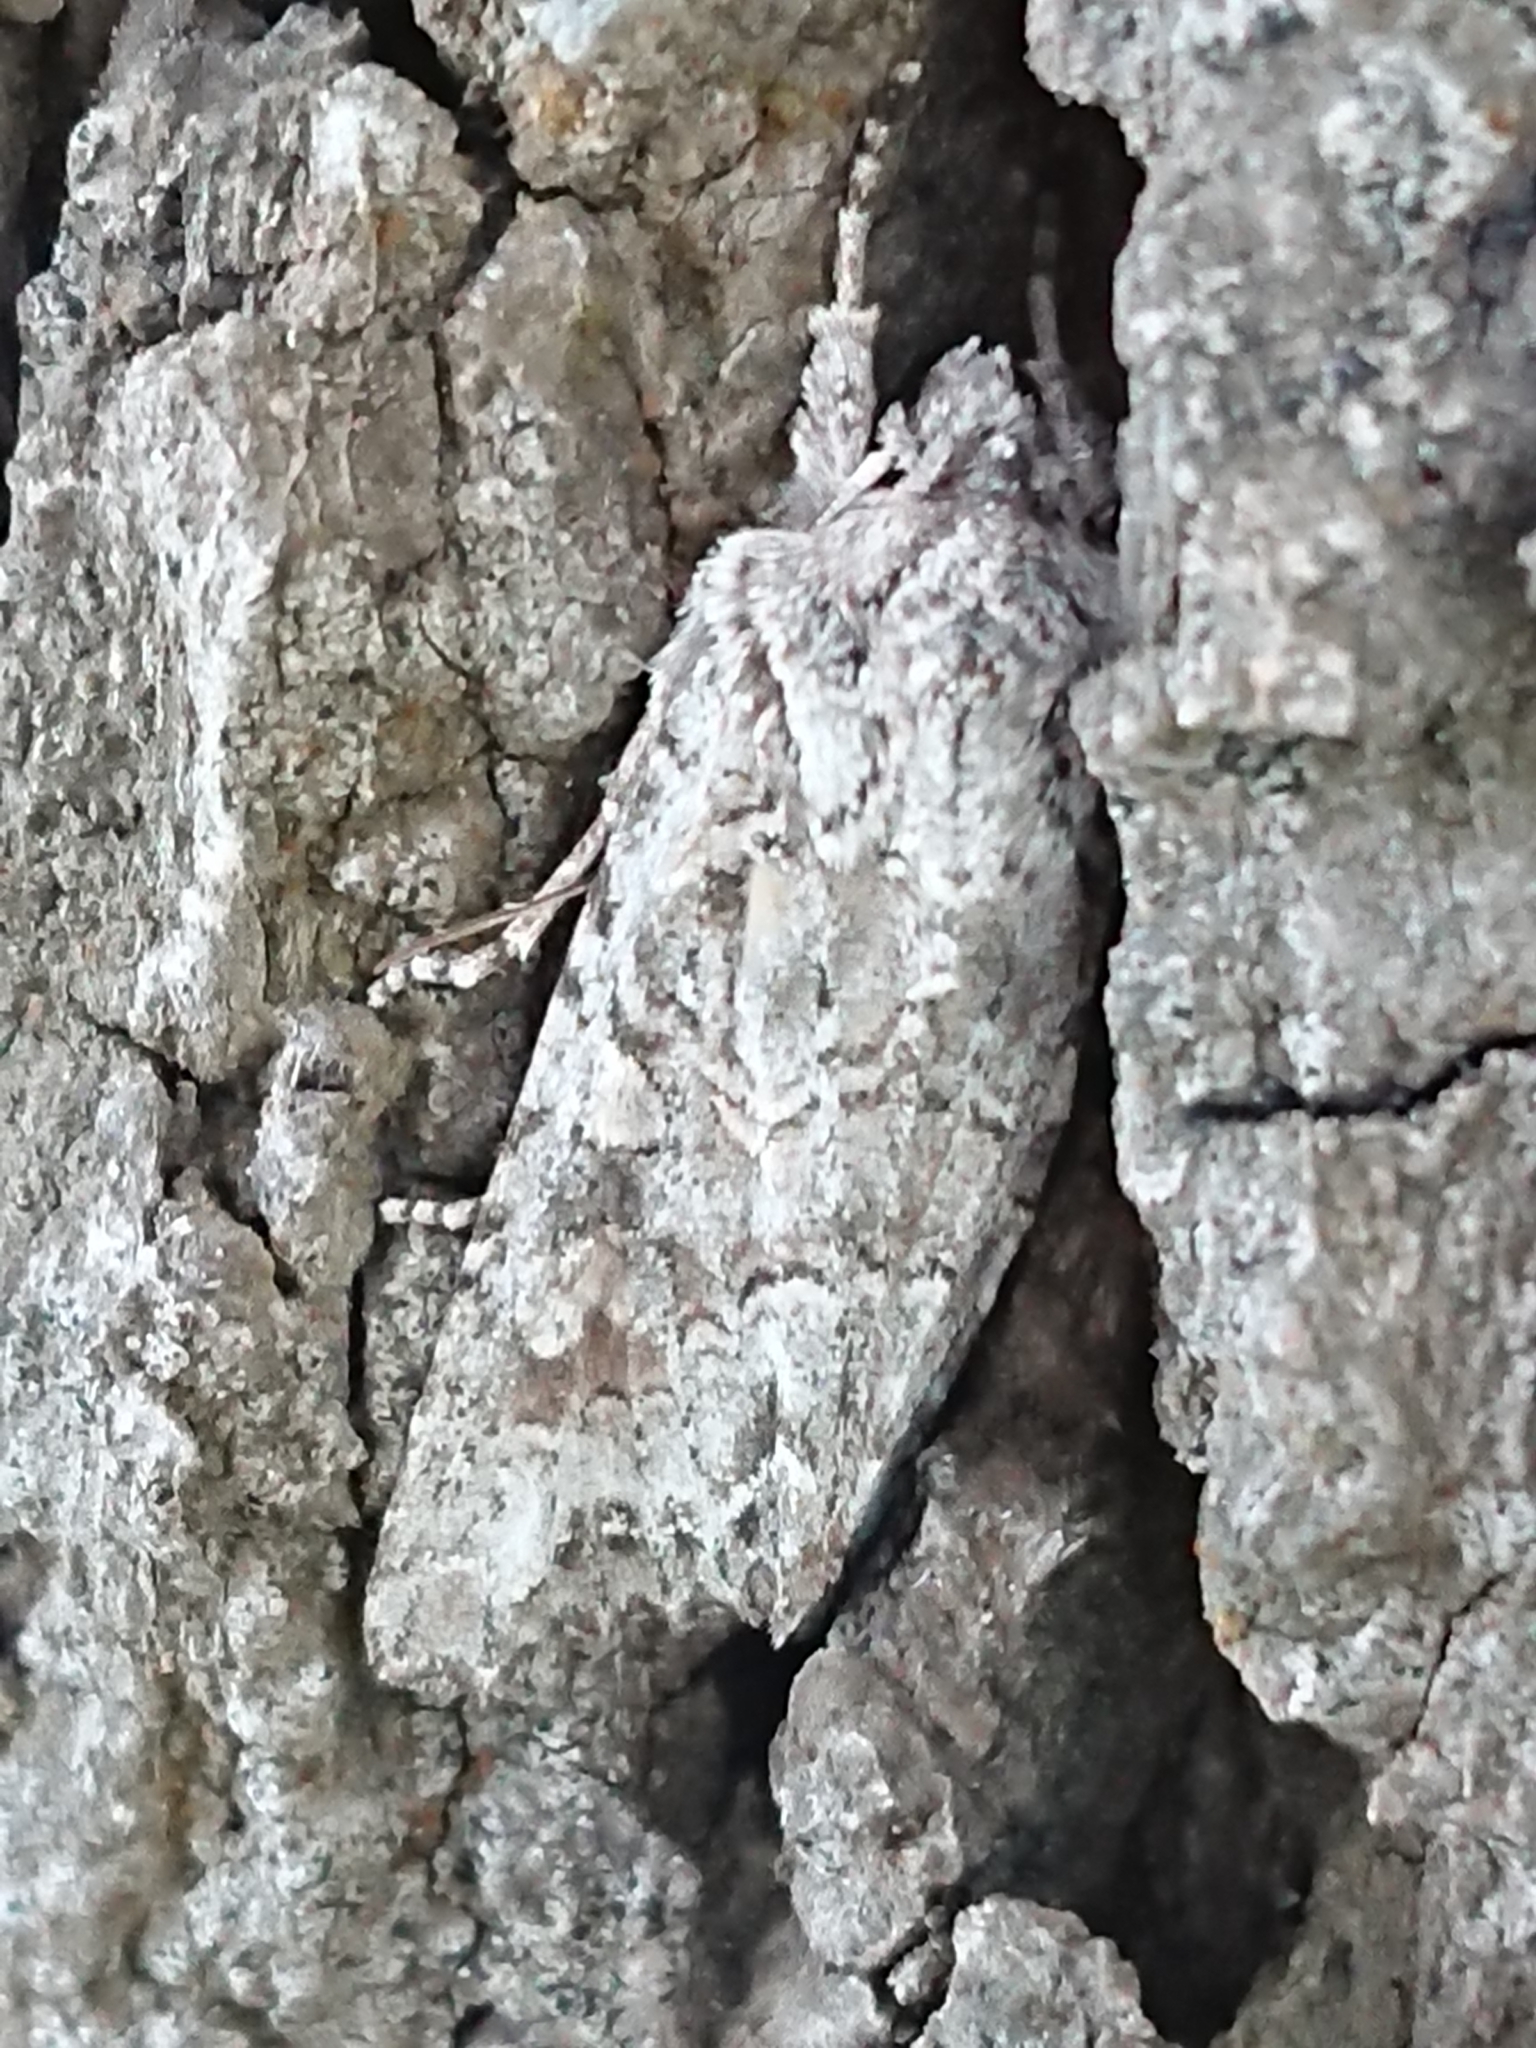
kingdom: Animalia
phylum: Arthropoda
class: Insecta
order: Lepidoptera
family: Noctuidae
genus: Ichneutica
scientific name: Ichneutica mutans
